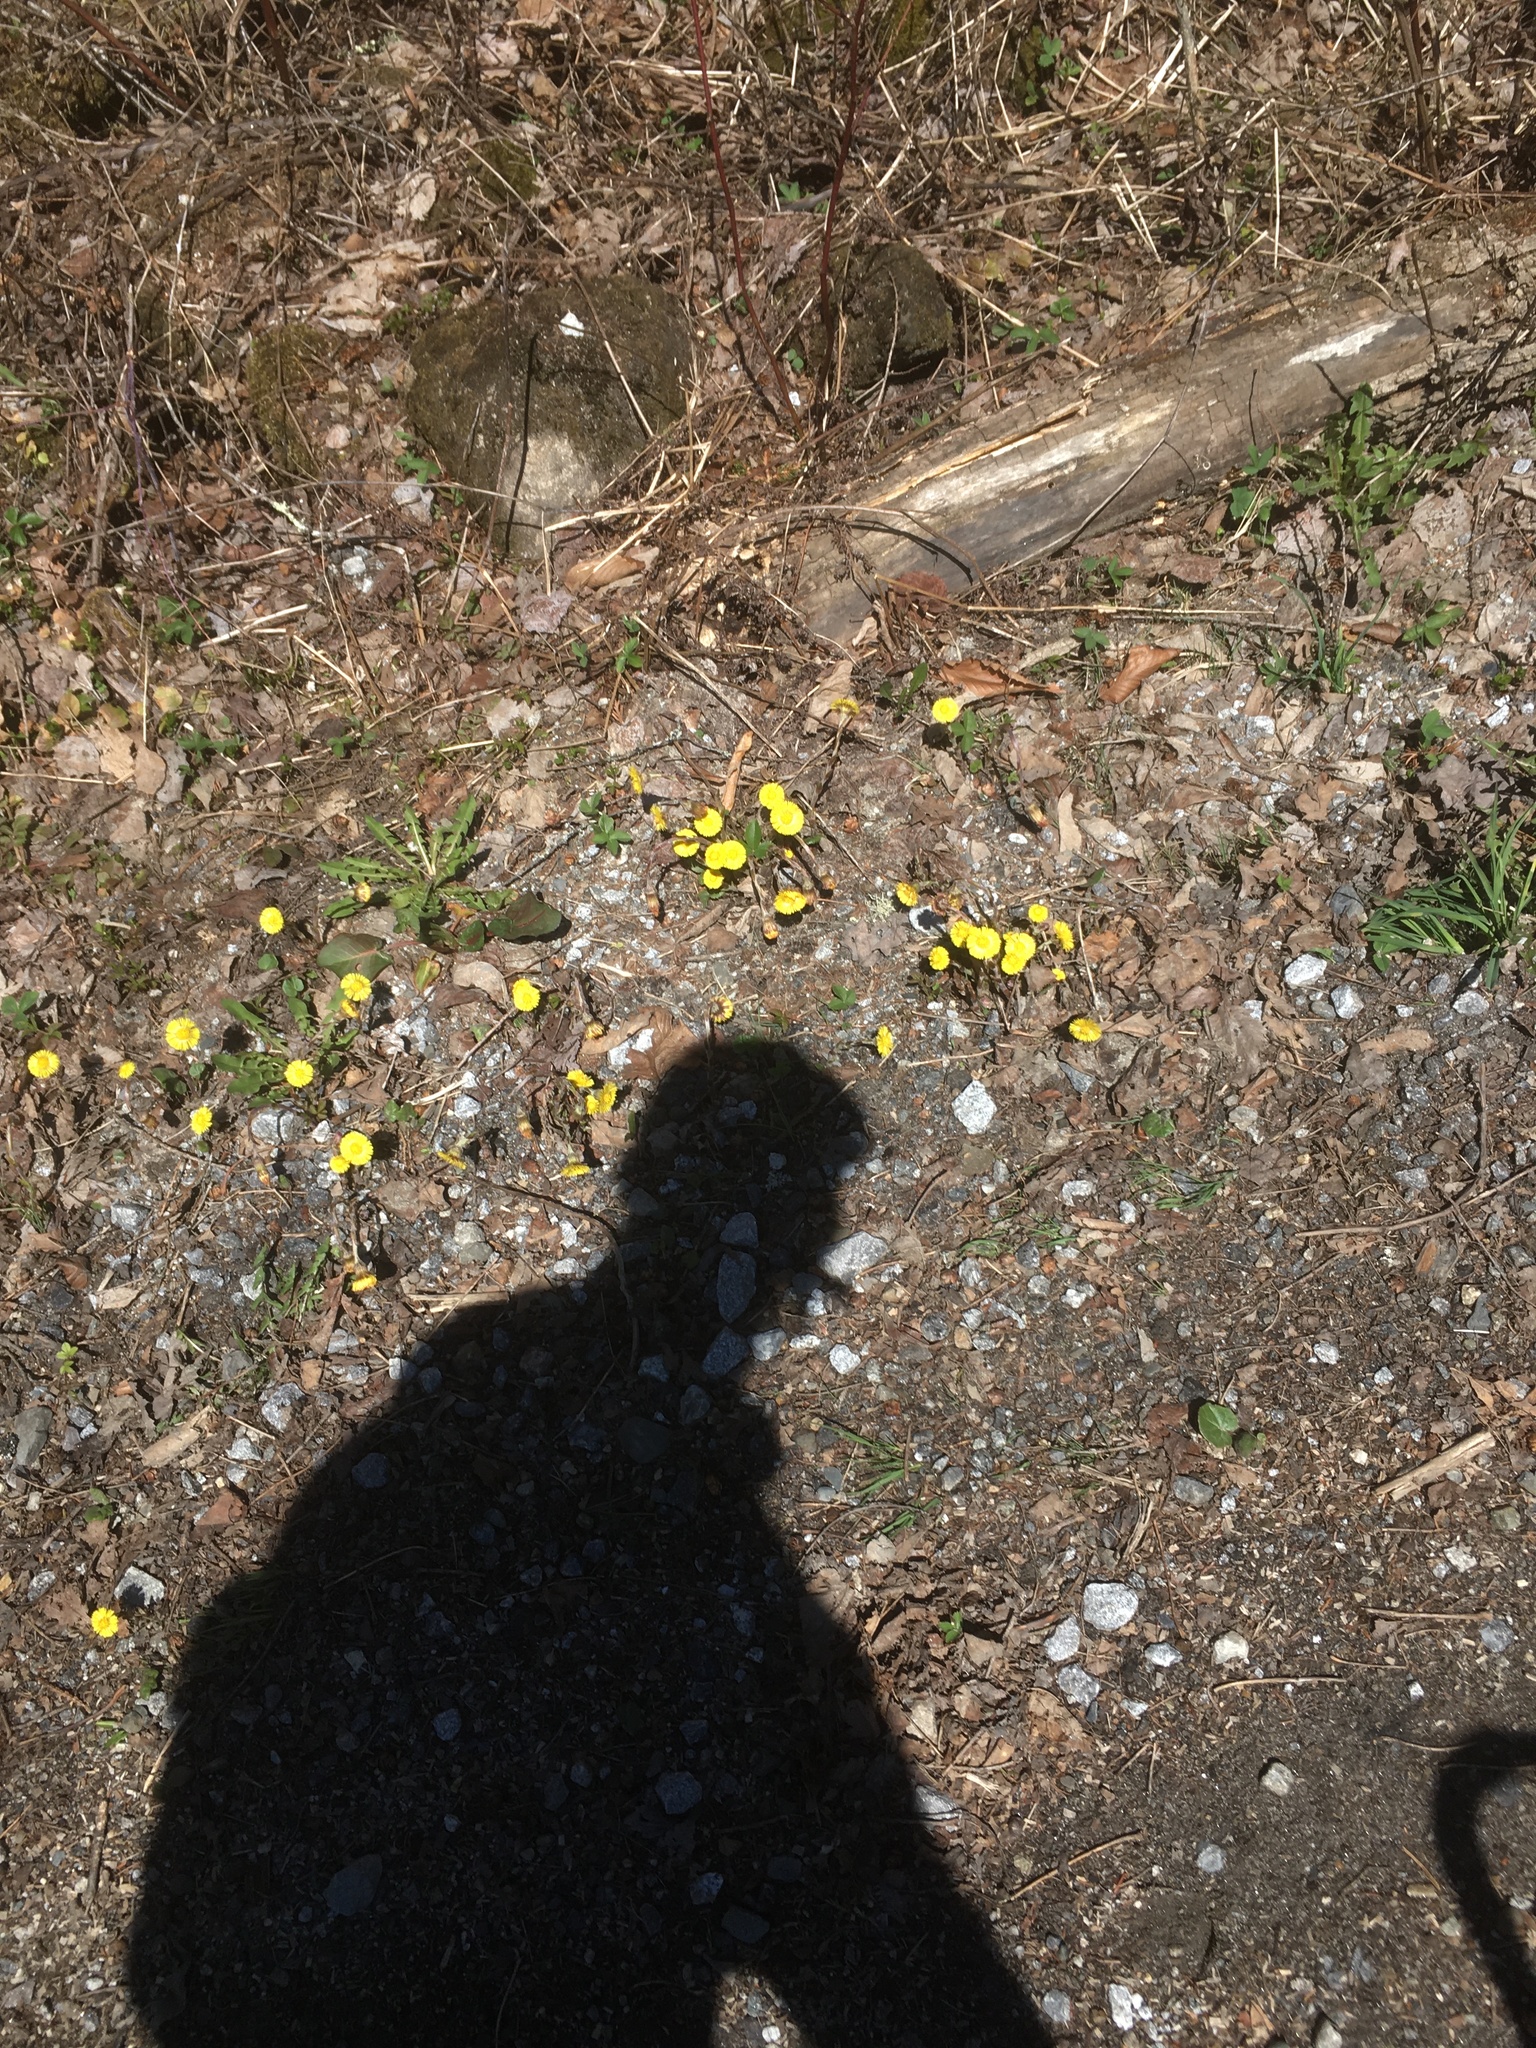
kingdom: Plantae
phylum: Tracheophyta
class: Magnoliopsida
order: Asterales
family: Asteraceae
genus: Tussilago
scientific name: Tussilago farfara
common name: Coltsfoot
